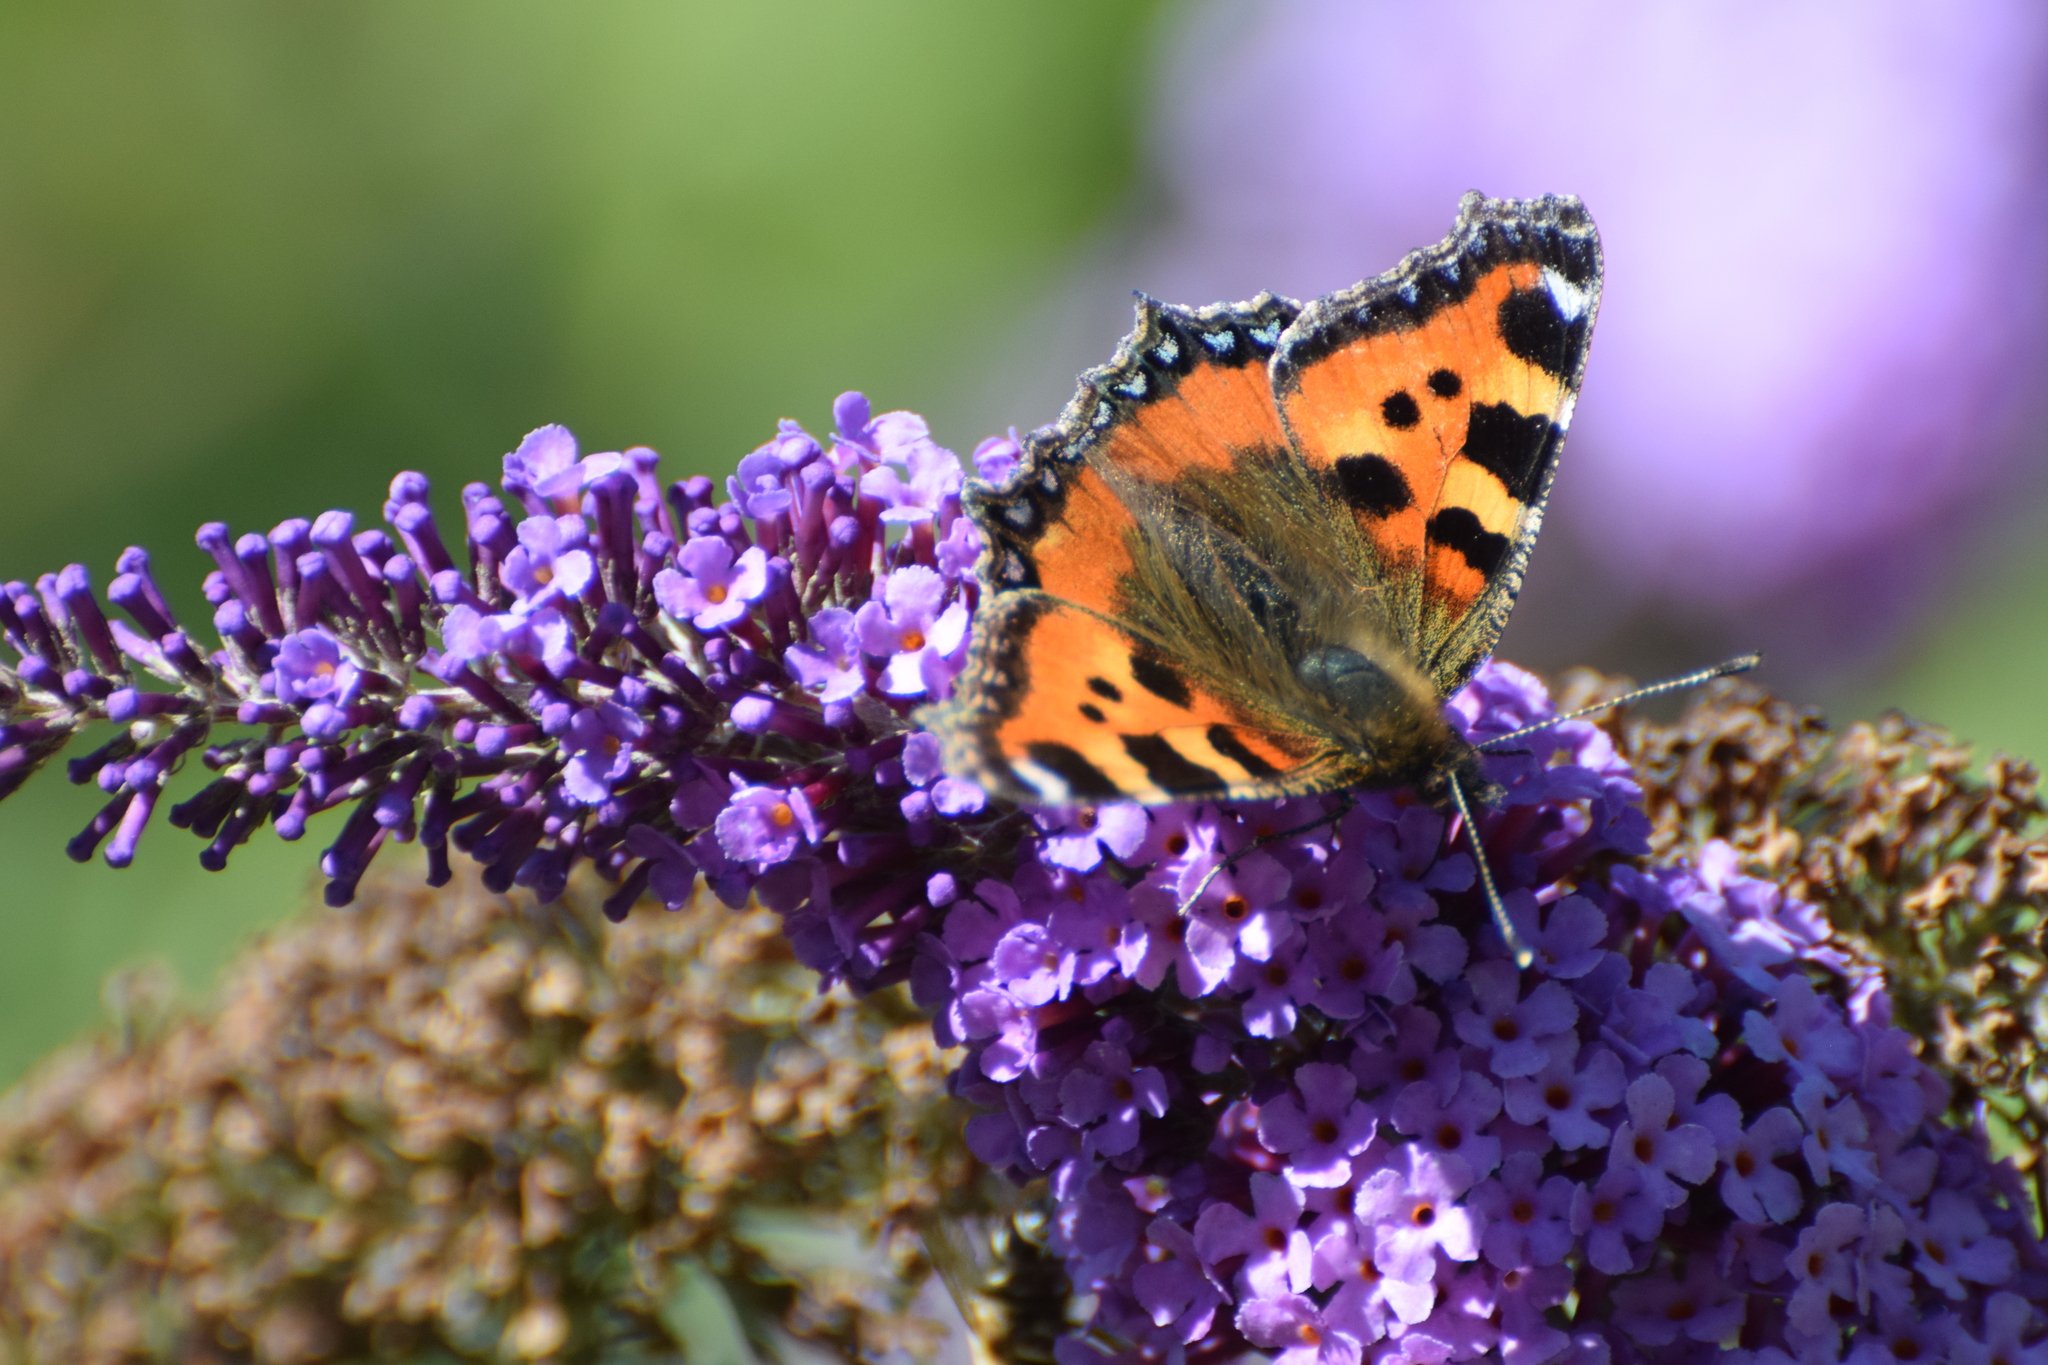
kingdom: Animalia
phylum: Arthropoda
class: Insecta
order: Lepidoptera
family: Nymphalidae
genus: Aglais
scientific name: Aglais urticae
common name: Small tortoiseshell
